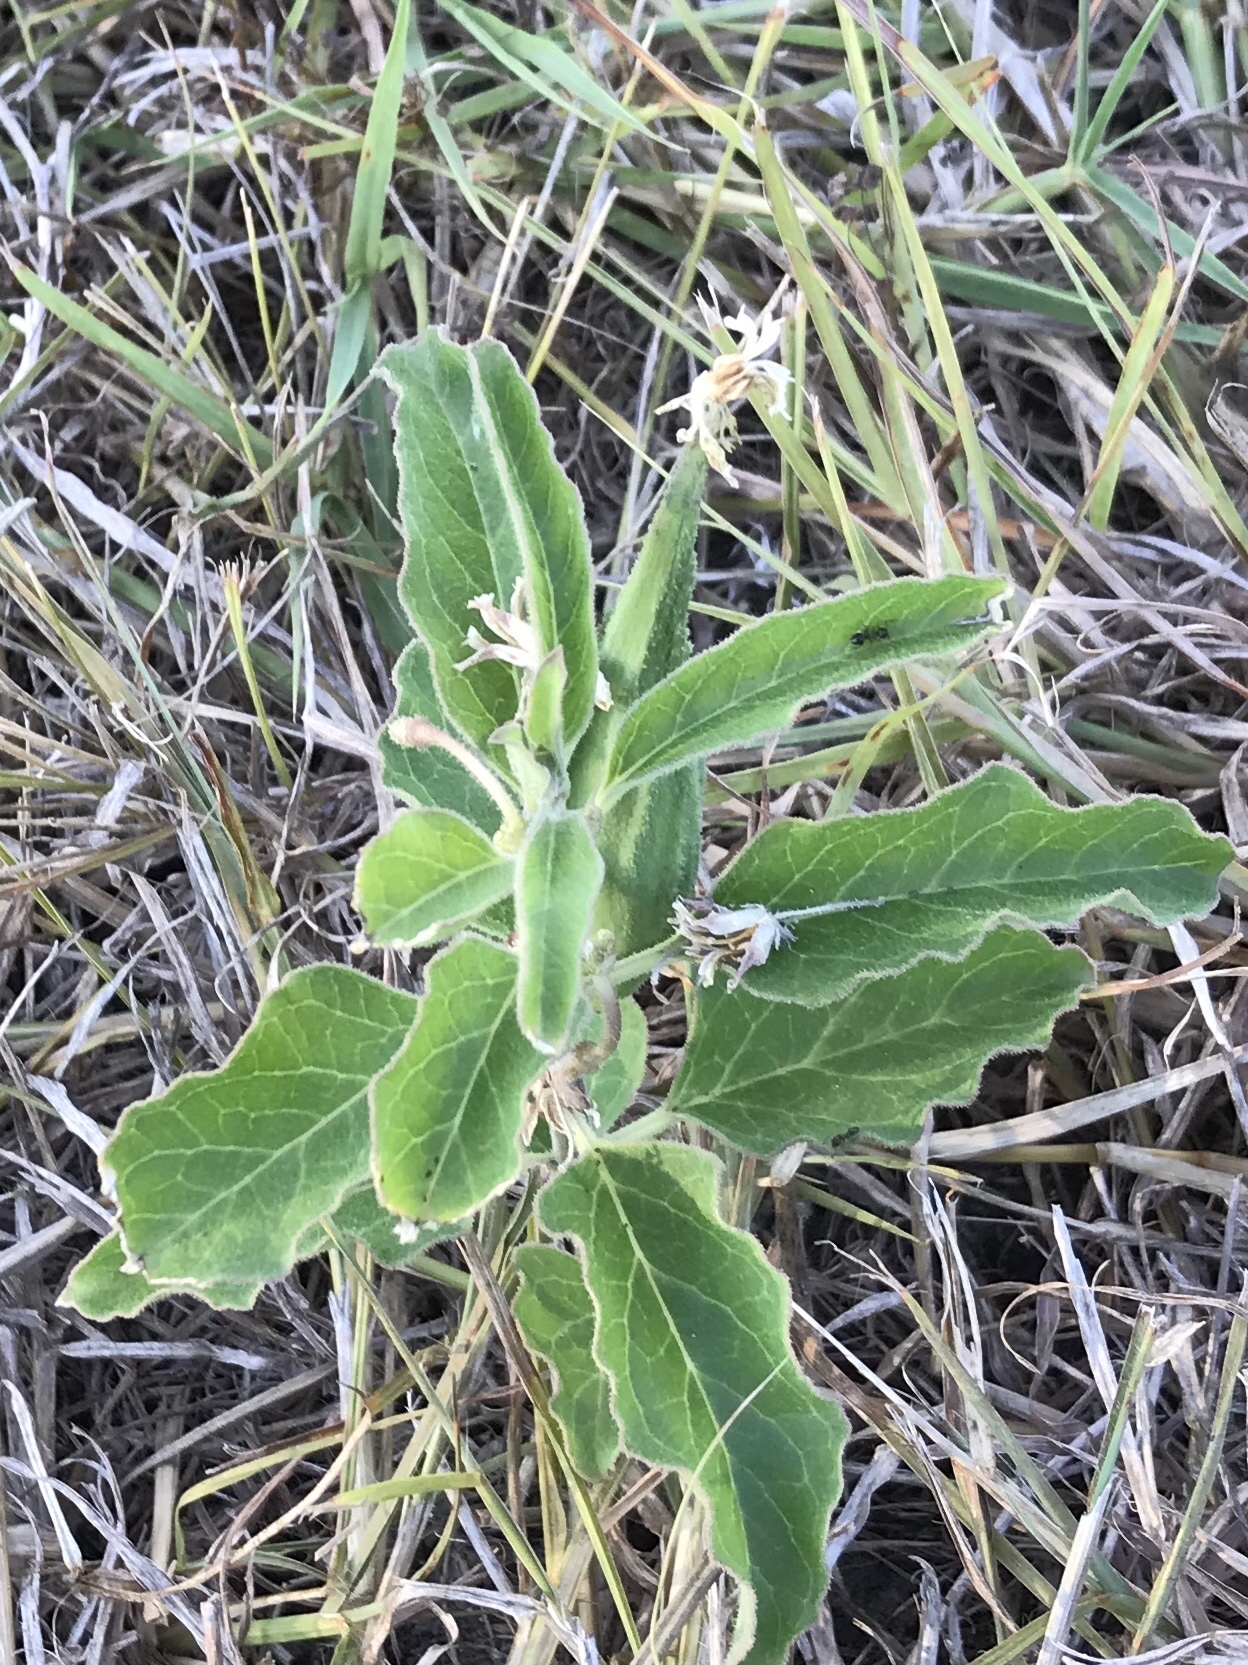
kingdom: Plantae
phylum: Tracheophyta
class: Magnoliopsida
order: Gentianales
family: Apocynaceae
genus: Asclepias
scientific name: Asclepias oenotheroides
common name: Zizotes milkweed
